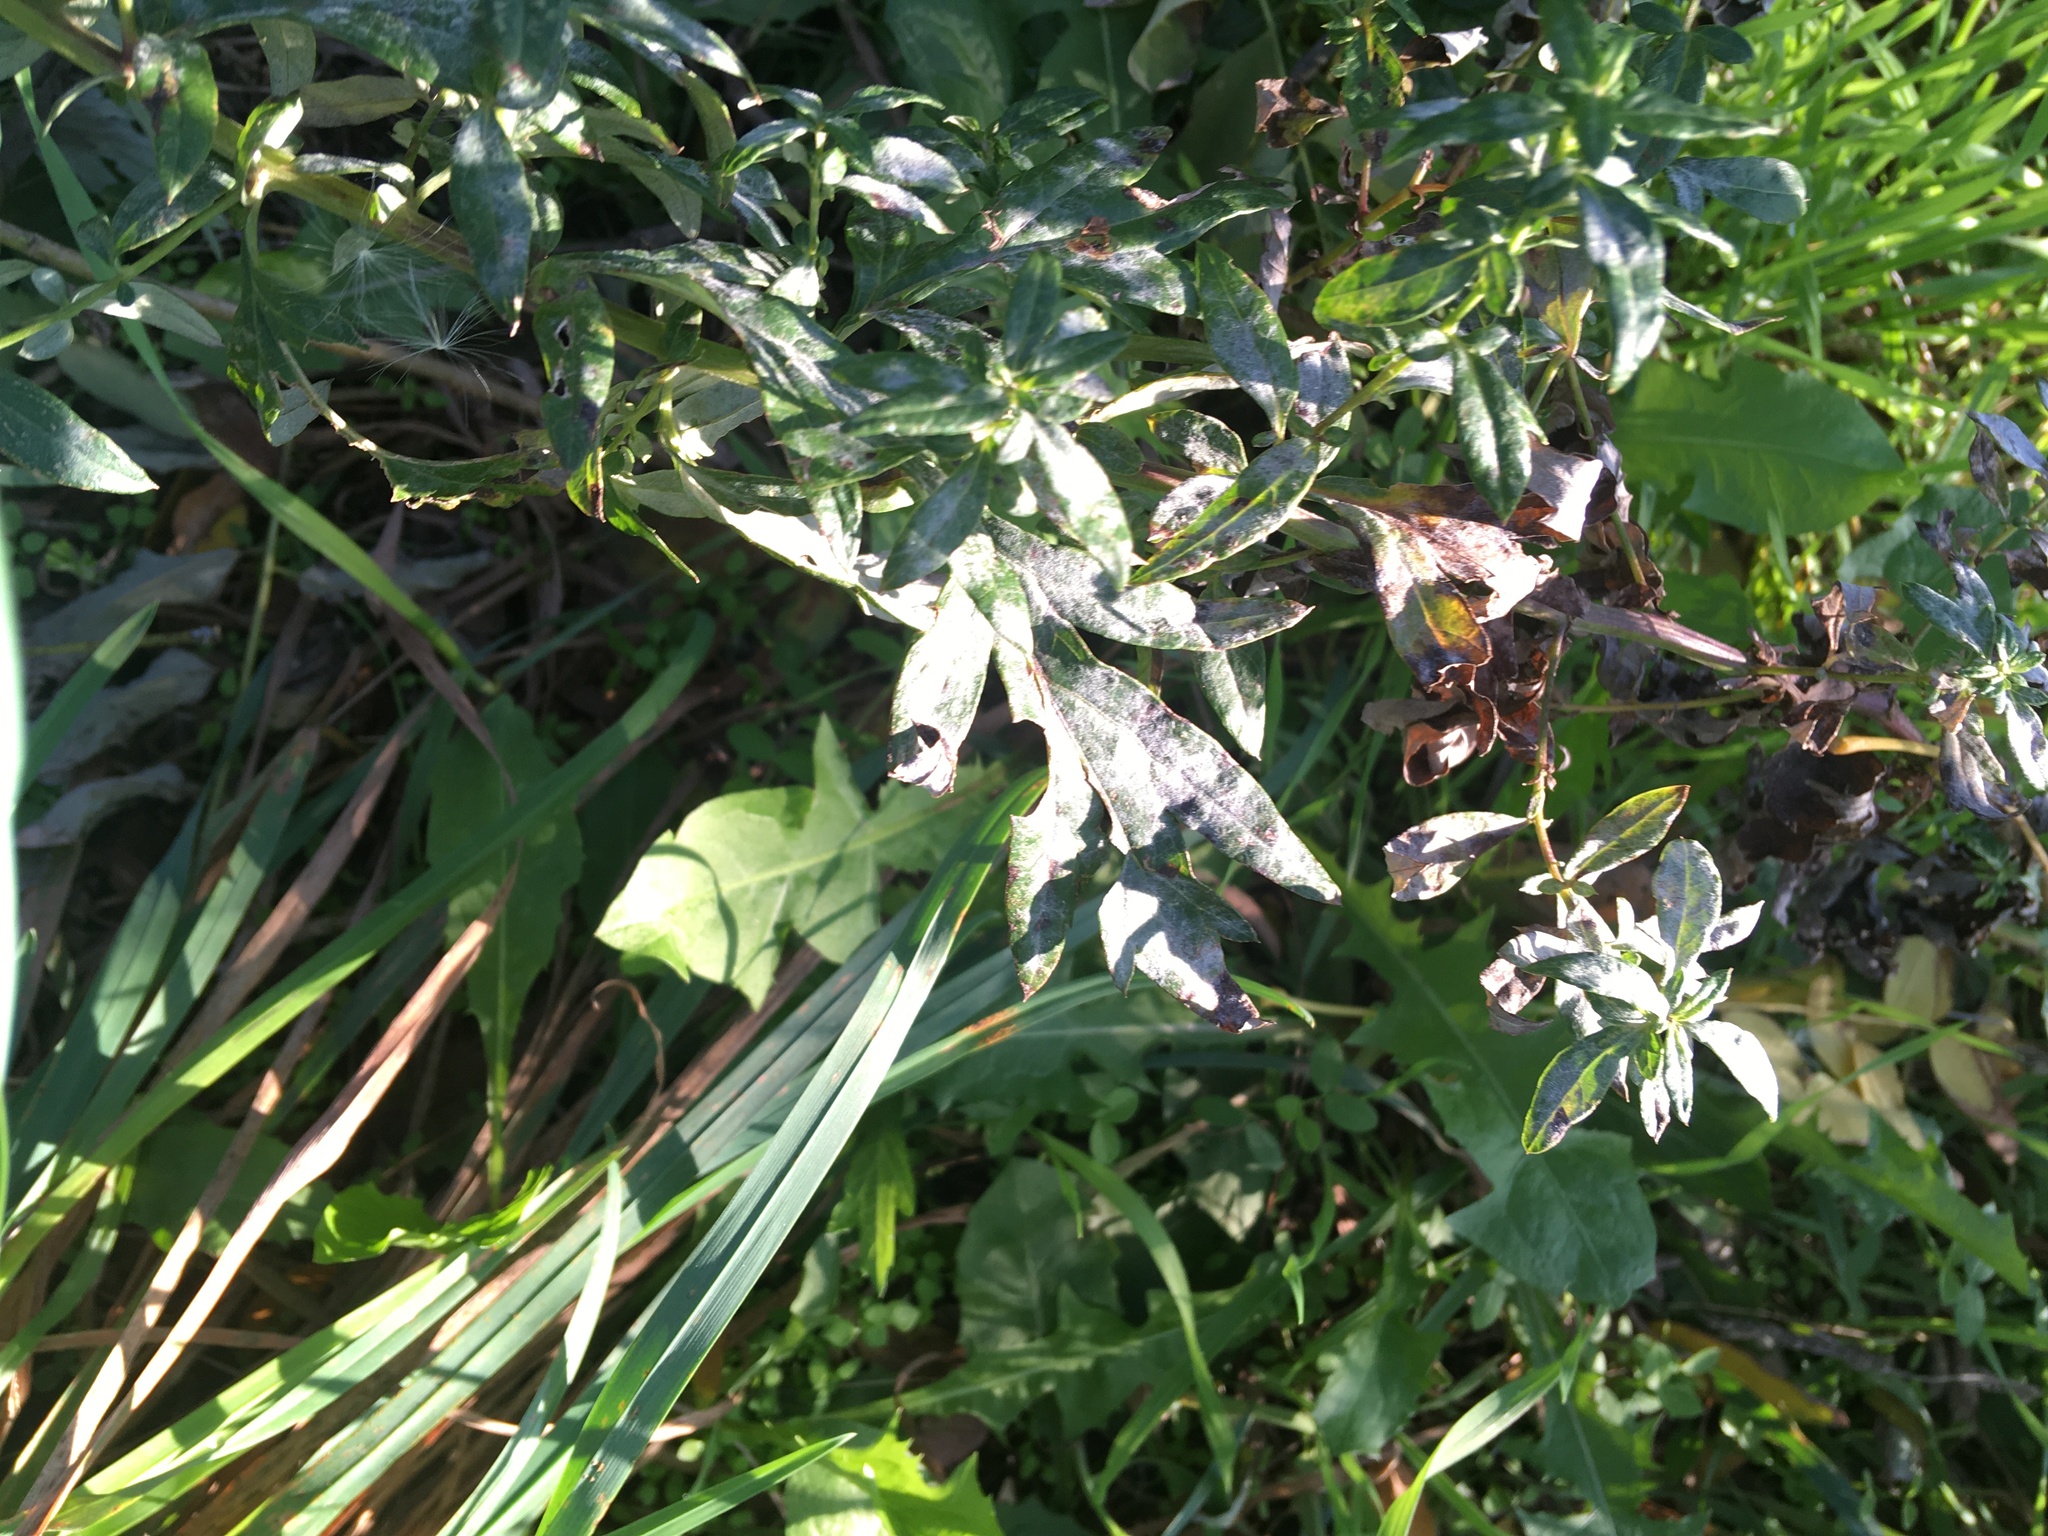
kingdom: Plantae
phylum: Tracheophyta
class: Magnoliopsida
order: Asterales
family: Asteraceae
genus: Artemisia
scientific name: Artemisia vulgaris
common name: Mugwort
